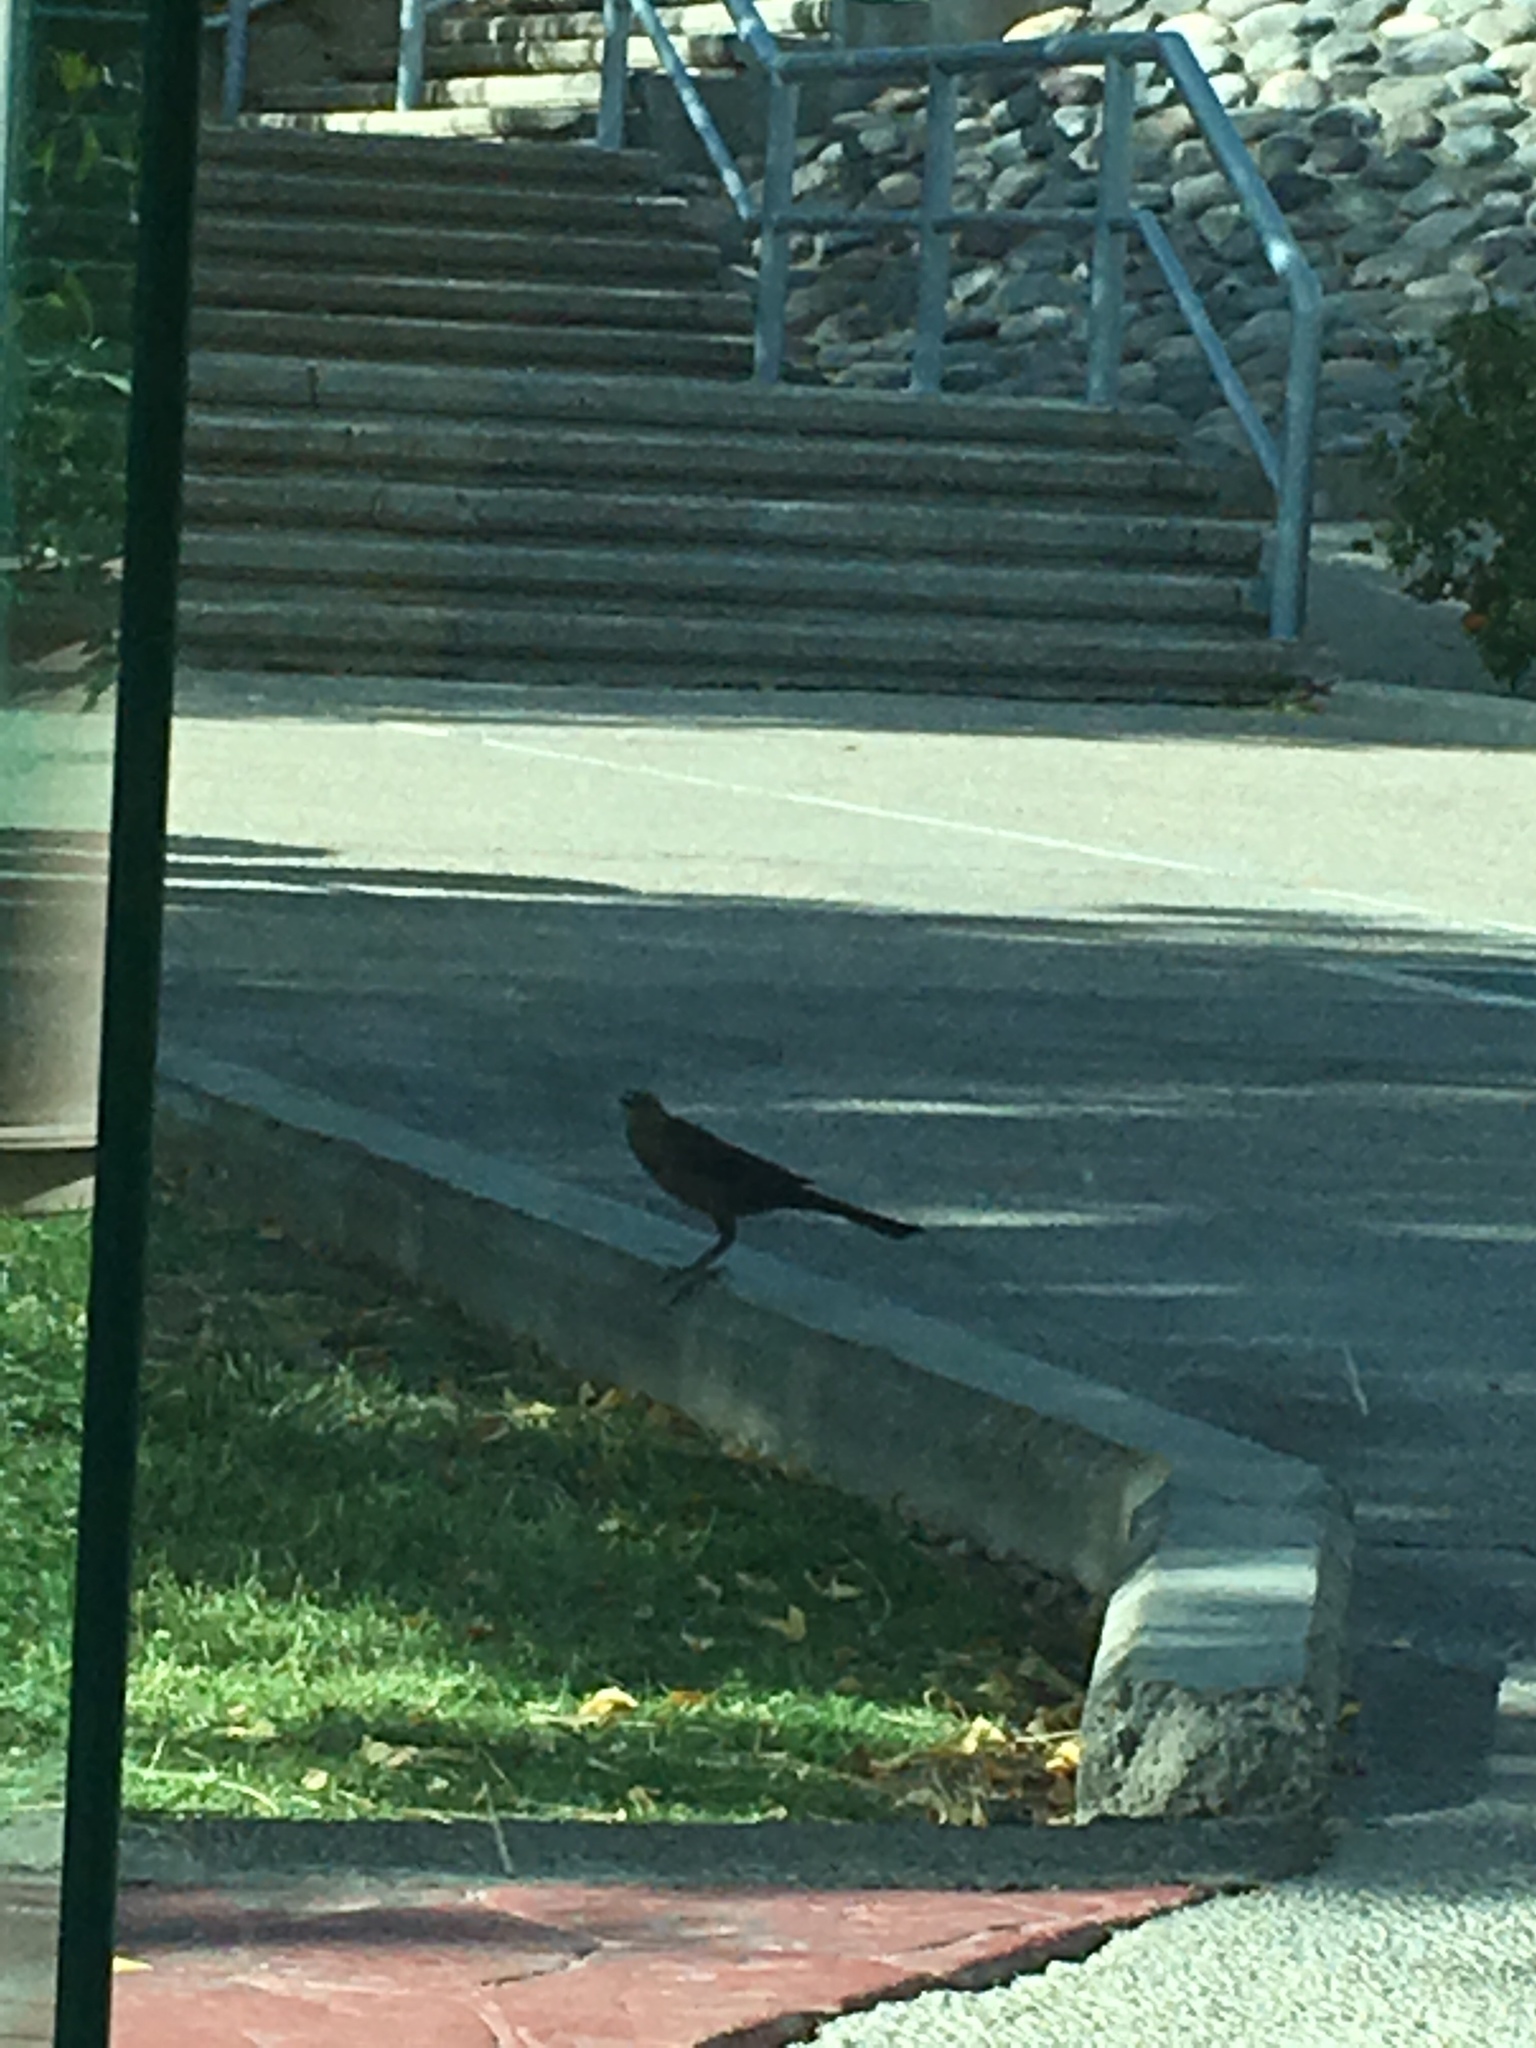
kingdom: Animalia
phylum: Chordata
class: Aves
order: Passeriformes
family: Icteridae
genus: Quiscalus
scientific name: Quiscalus mexicanus
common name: Great-tailed grackle
